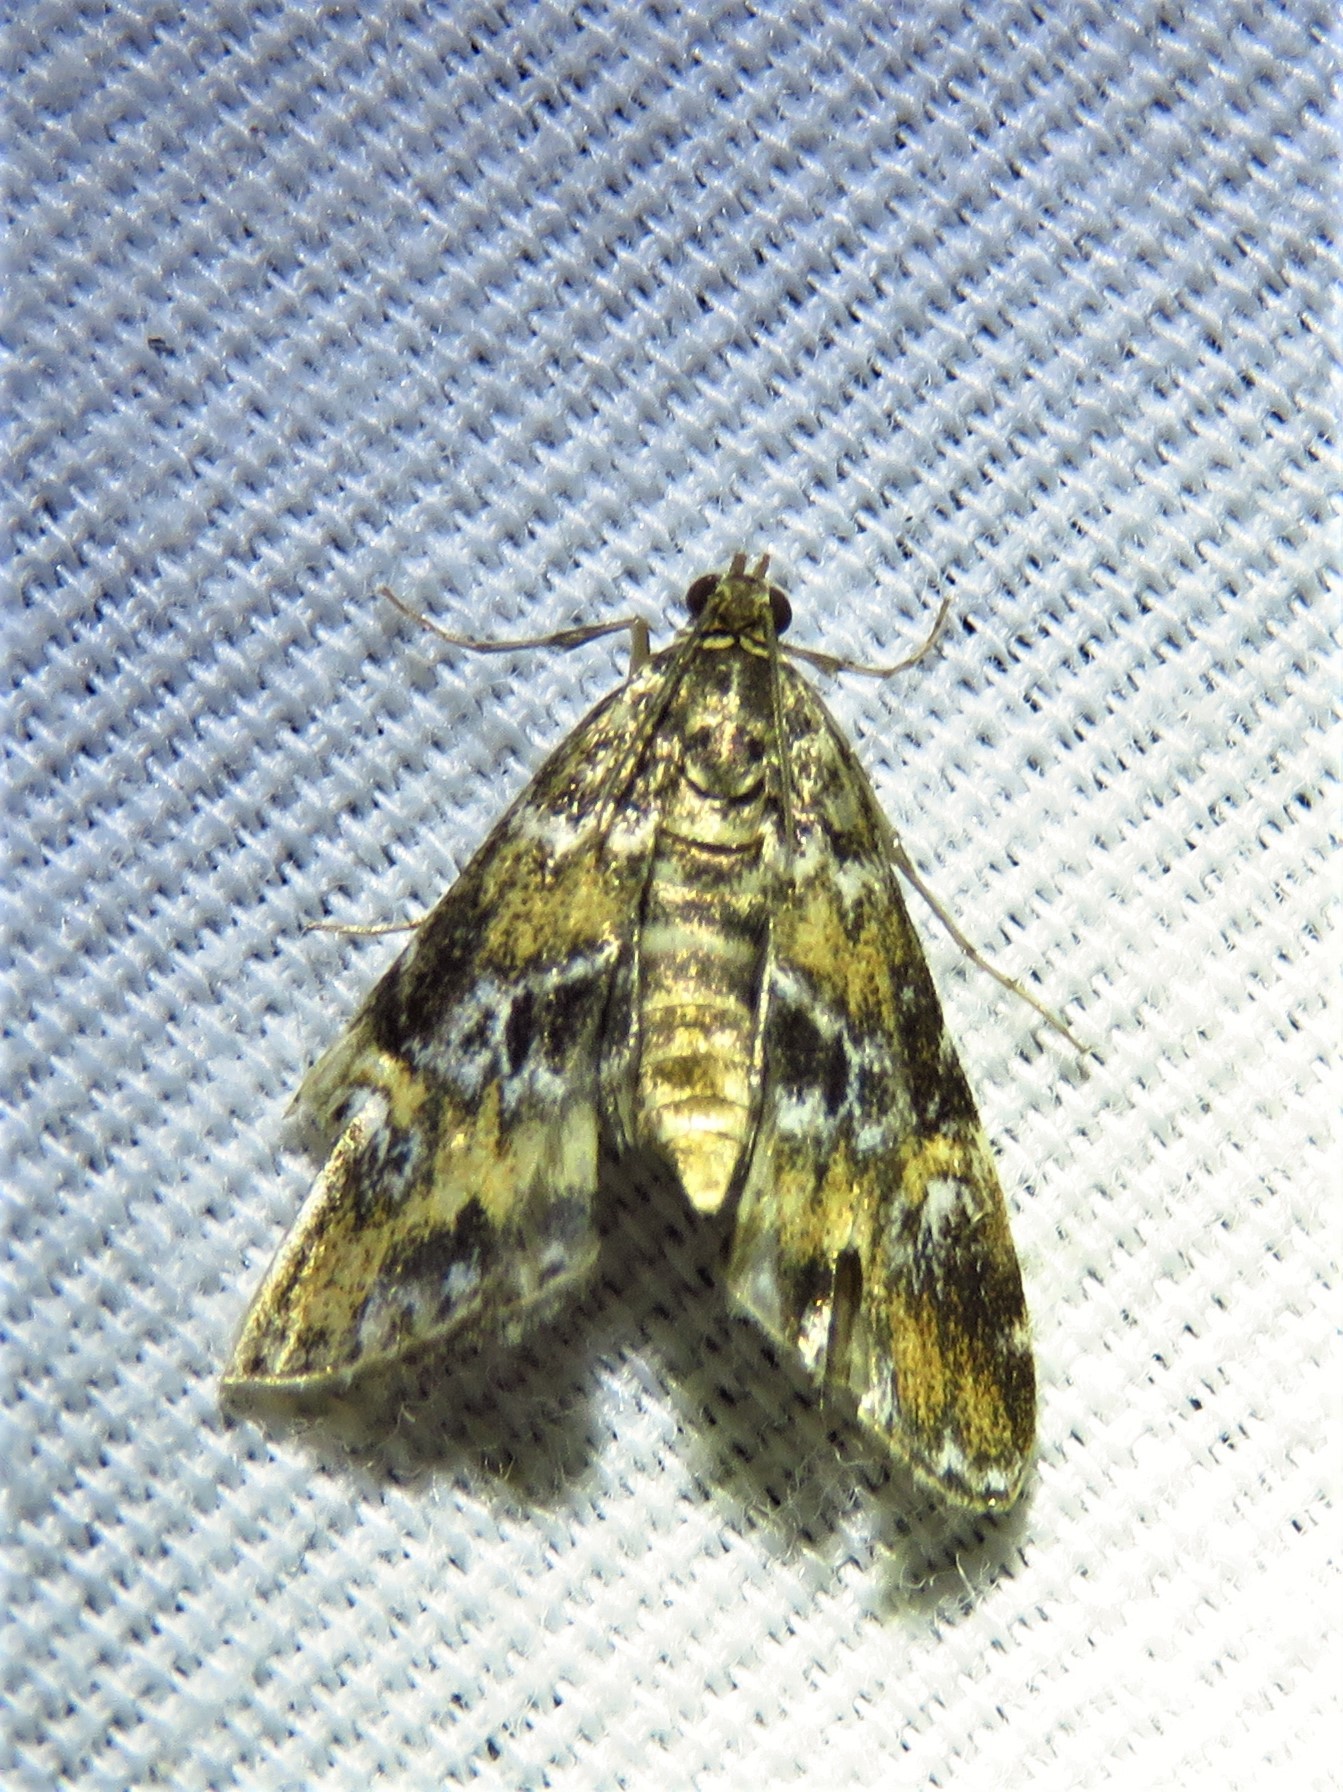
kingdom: Animalia
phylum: Arthropoda
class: Insecta
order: Lepidoptera
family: Crambidae
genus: Elophila
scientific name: Elophila obliteralis
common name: Waterlily leafcutter moth
